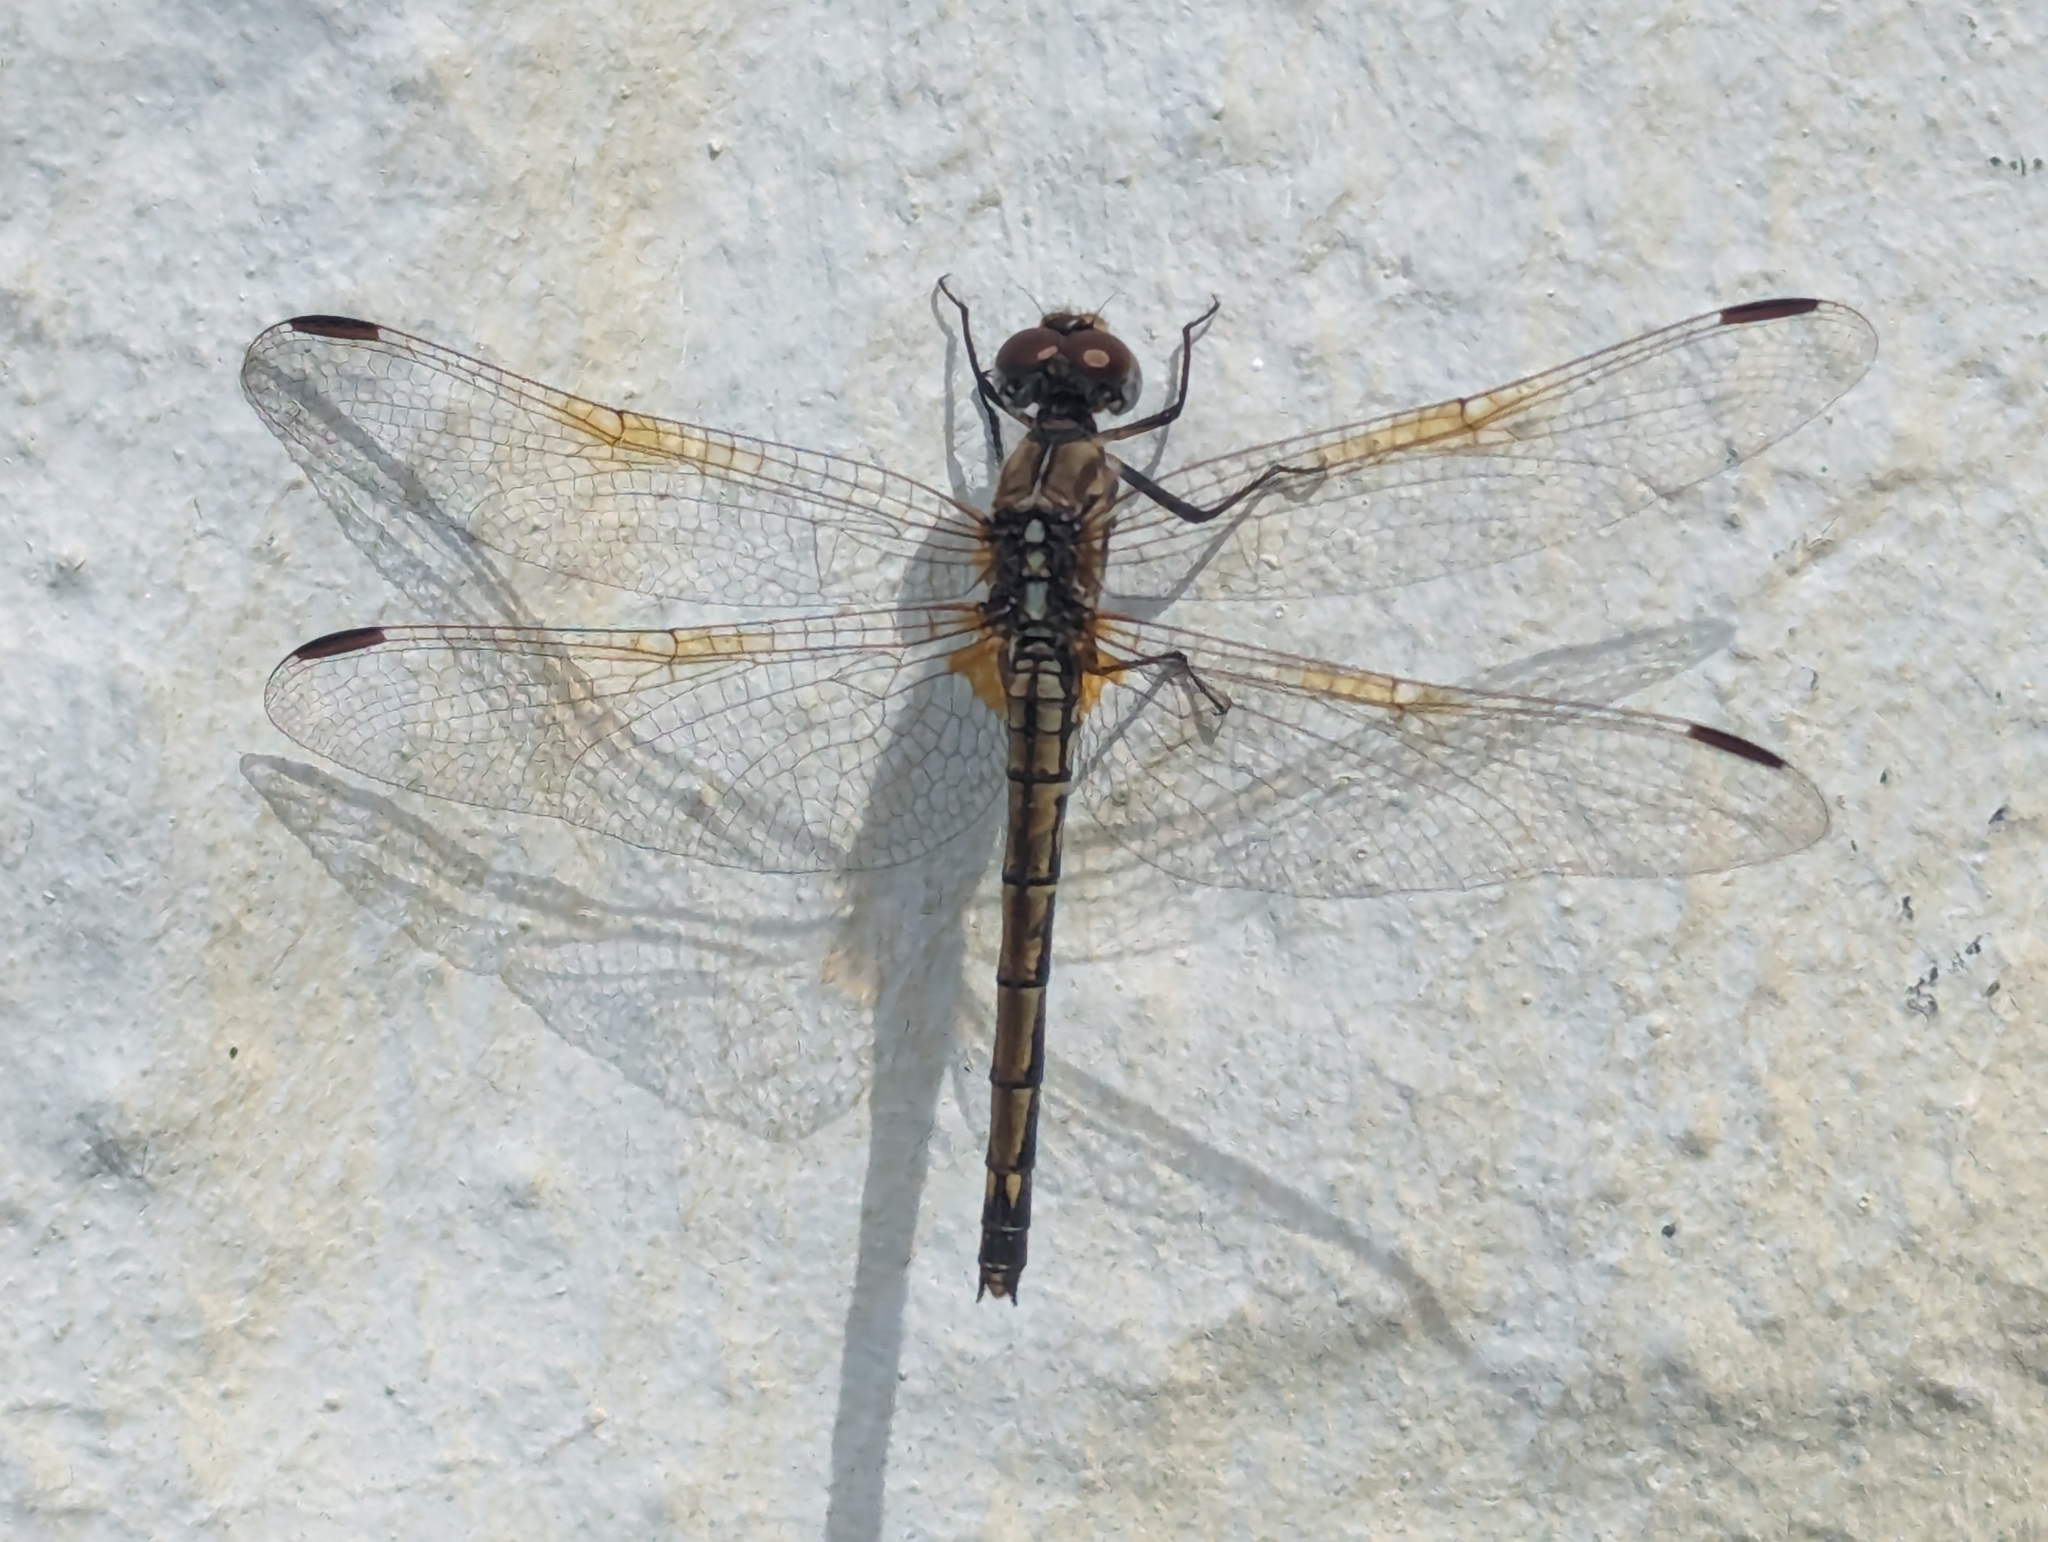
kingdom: Animalia
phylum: Arthropoda
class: Insecta
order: Odonata
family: Libellulidae
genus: Trithemis
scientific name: Trithemis arteriosa
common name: Red-veined dropwing
